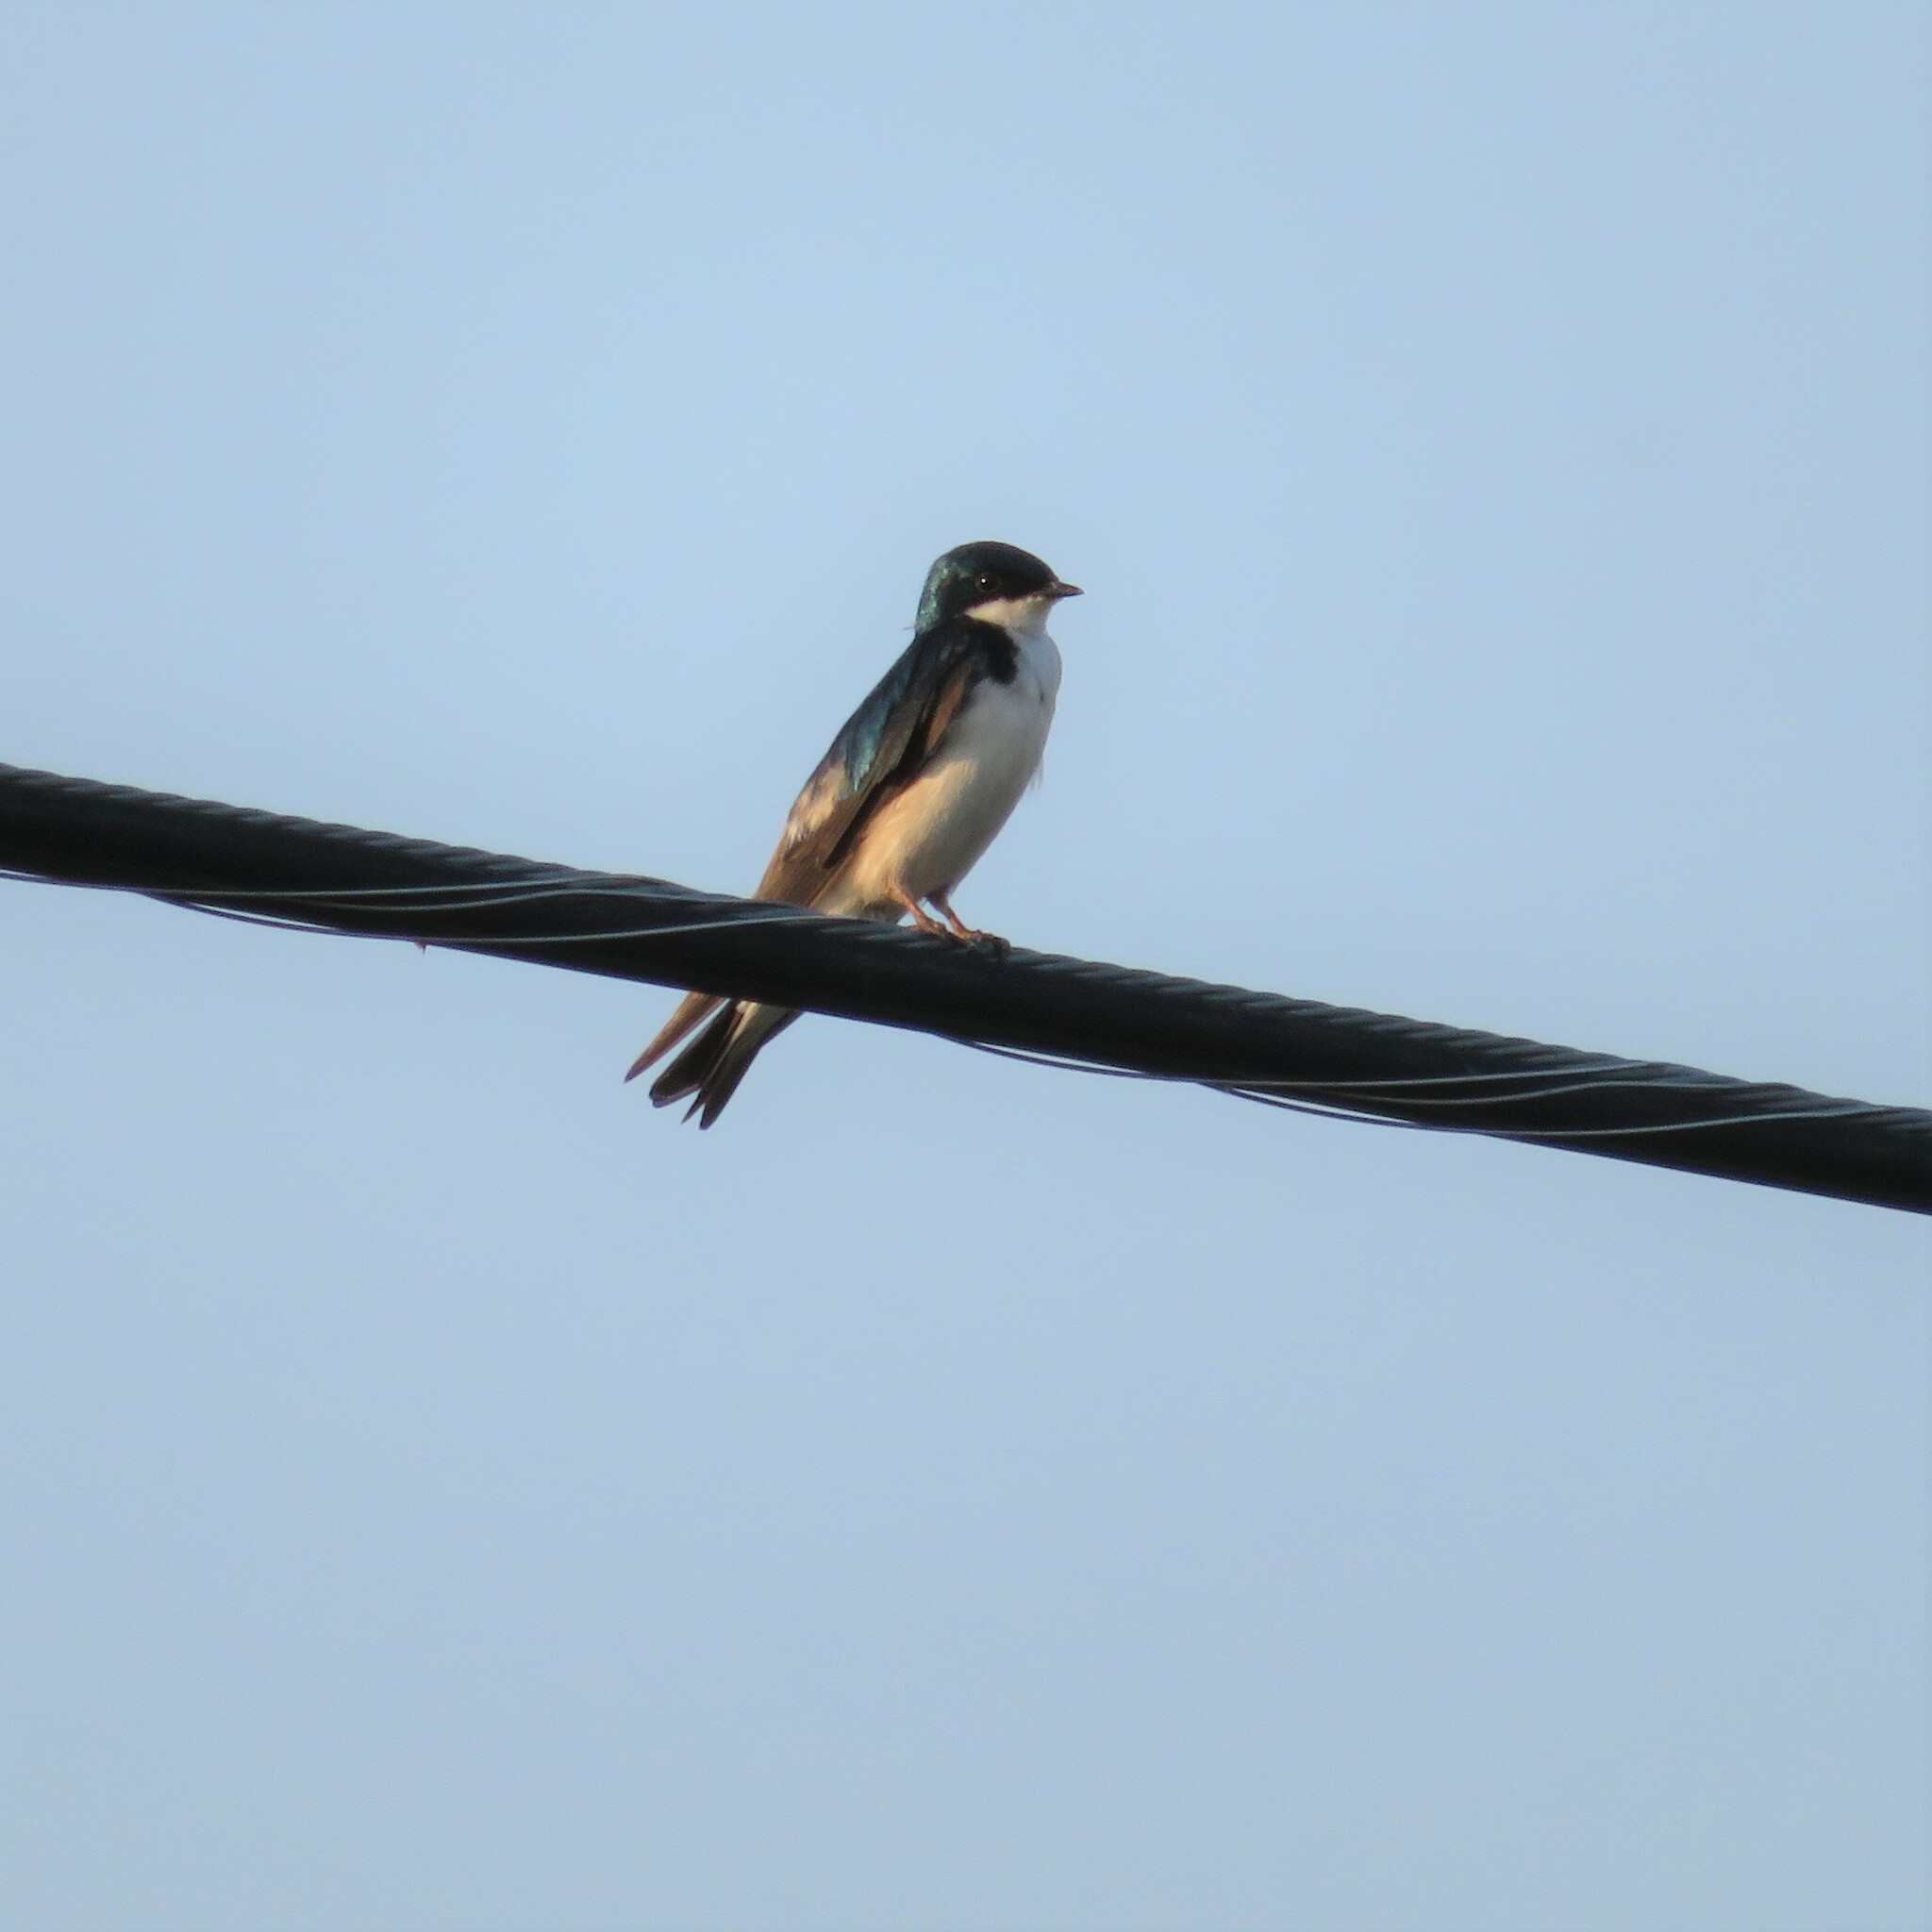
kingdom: Animalia
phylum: Chordata
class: Aves
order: Passeriformes
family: Hirundinidae
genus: Tachycineta
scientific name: Tachycineta bicolor
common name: Tree swallow
